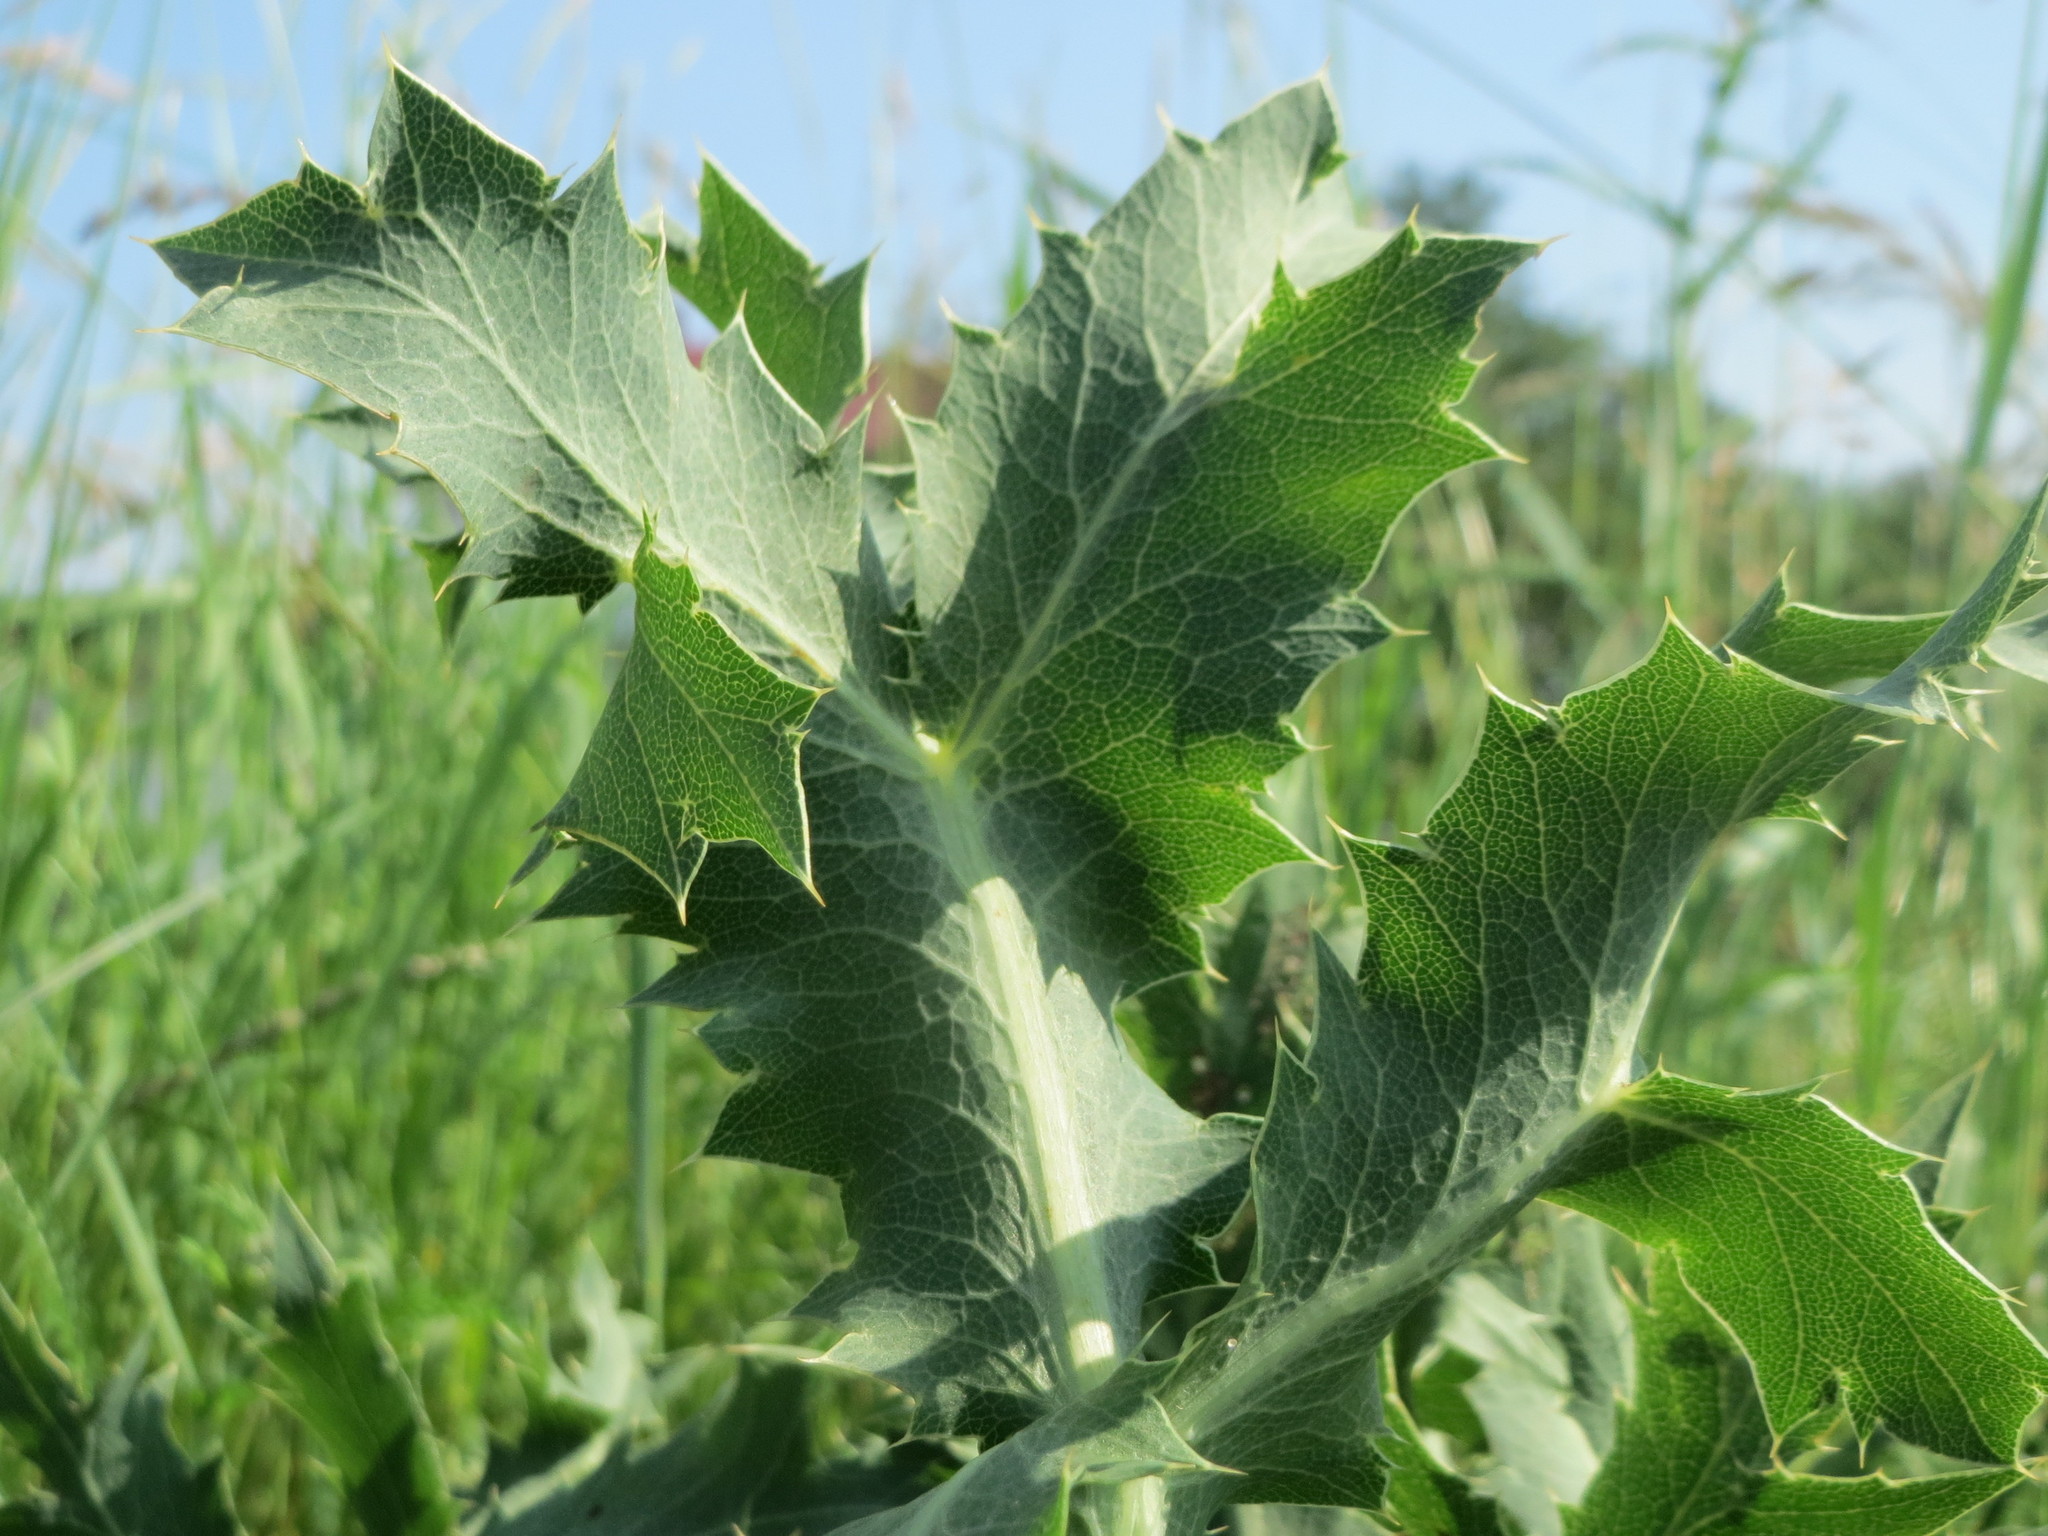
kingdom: Plantae
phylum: Tracheophyta
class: Magnoliopsida
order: Apiales
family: Apiaceae
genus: Eryngium
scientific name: Eryngium campestre
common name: Field eryngo
